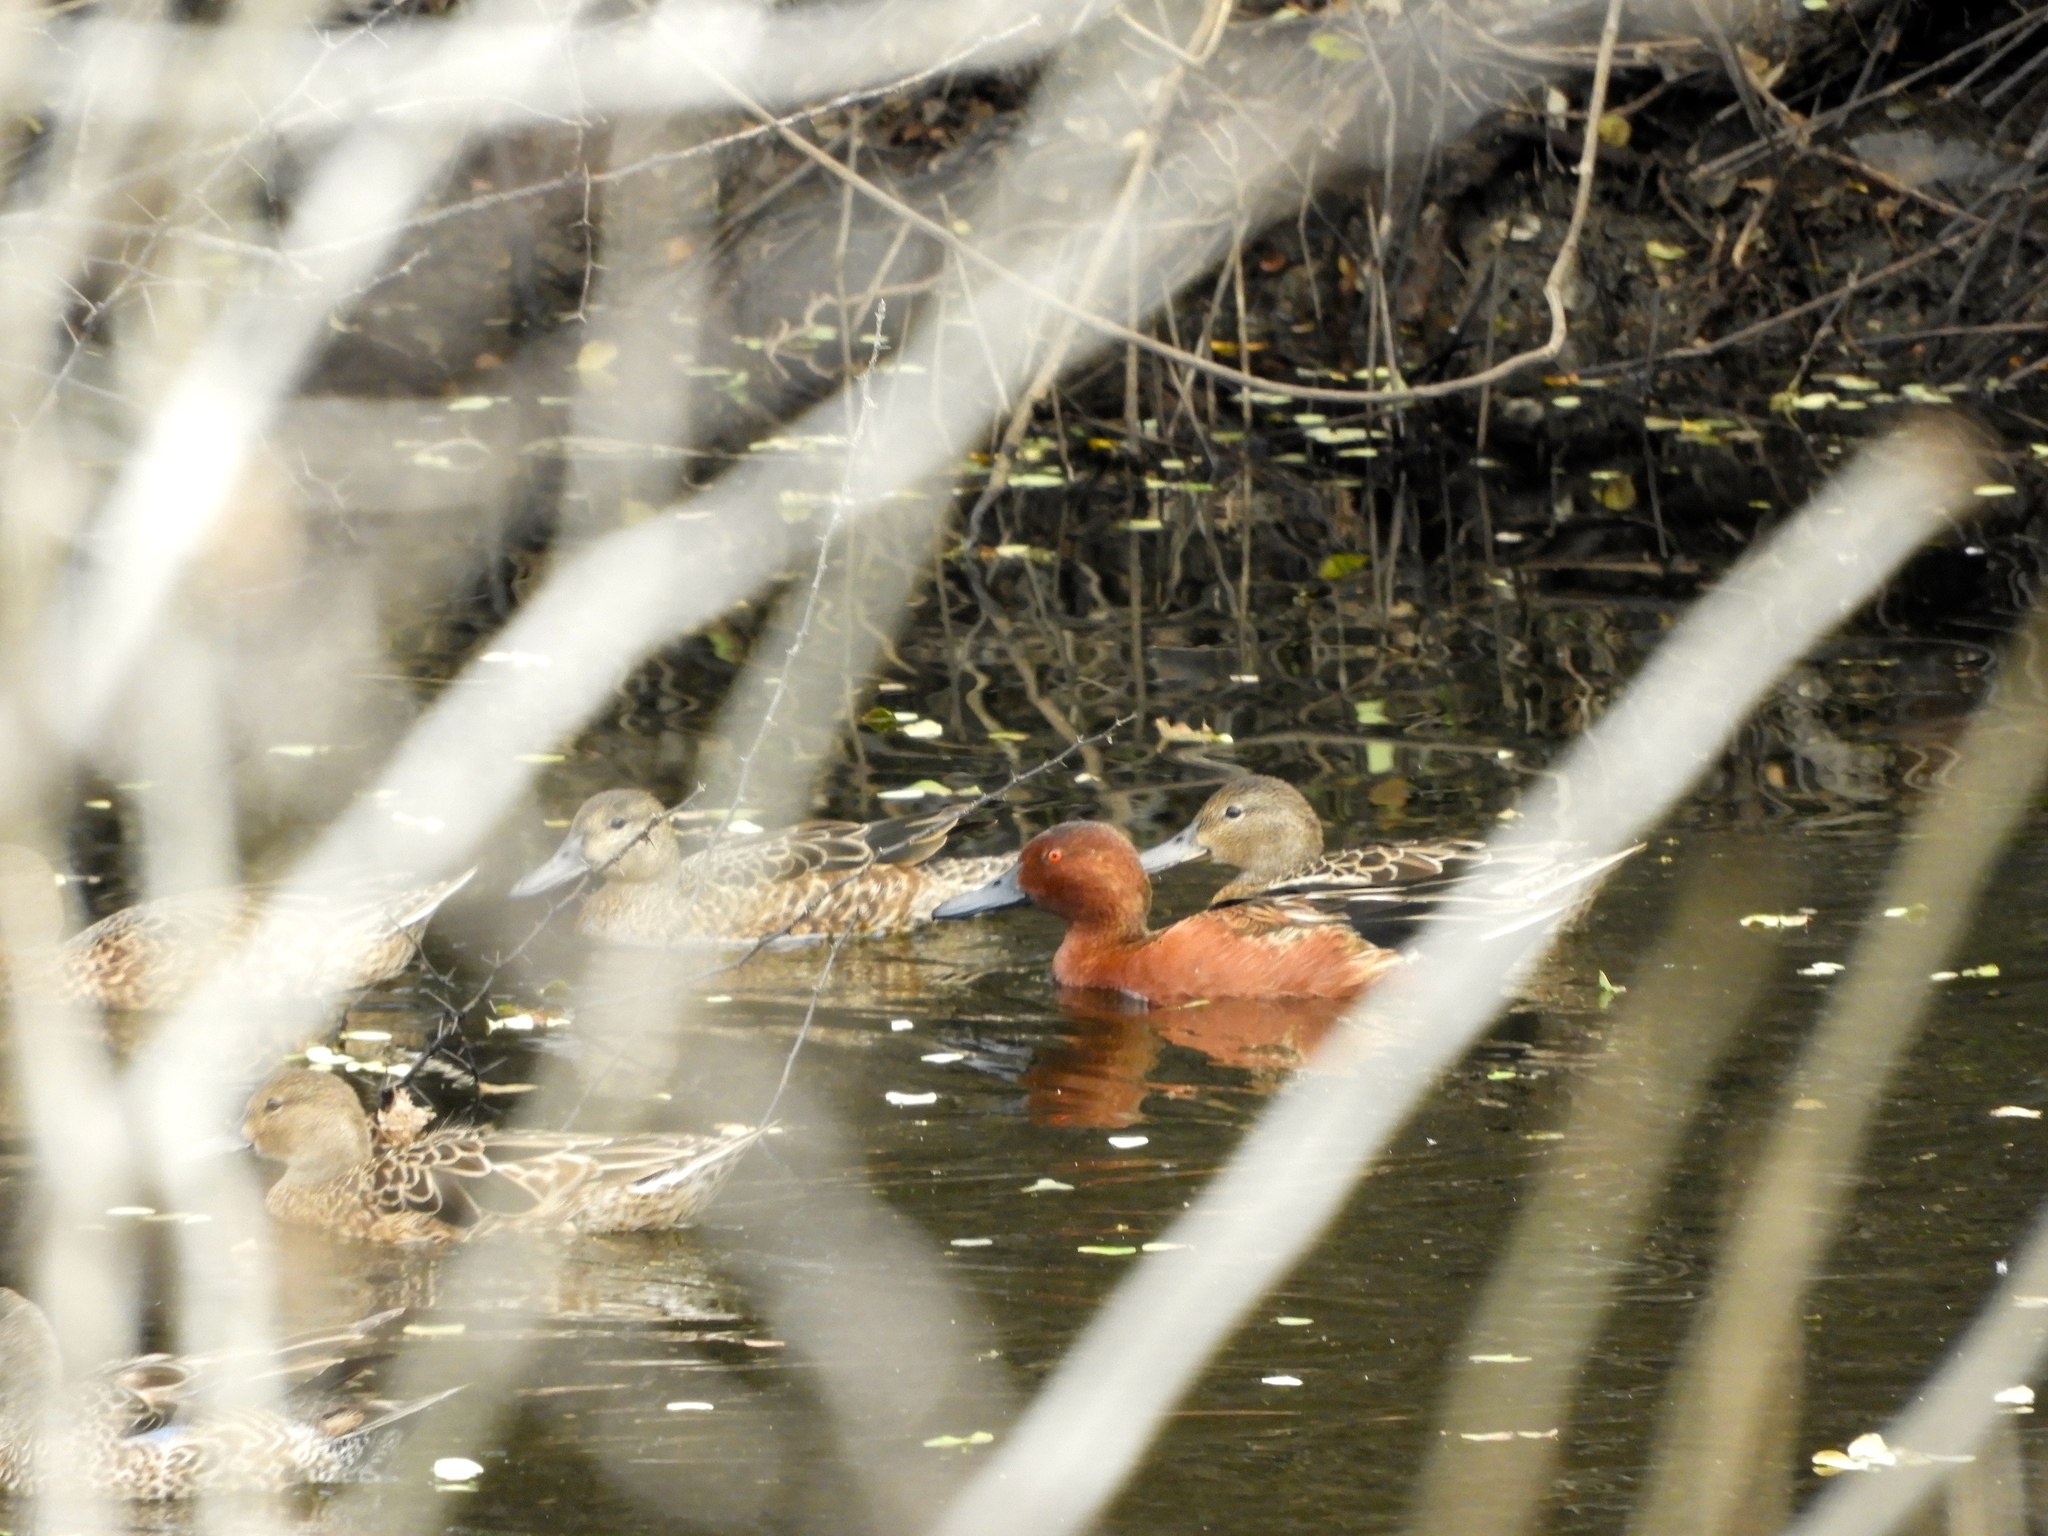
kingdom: Animalia
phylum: Chordata
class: Aves
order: Anseriformes
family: Anatidae
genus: Spatula
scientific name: Spatula cyanoptera
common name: Cinnamon teal
